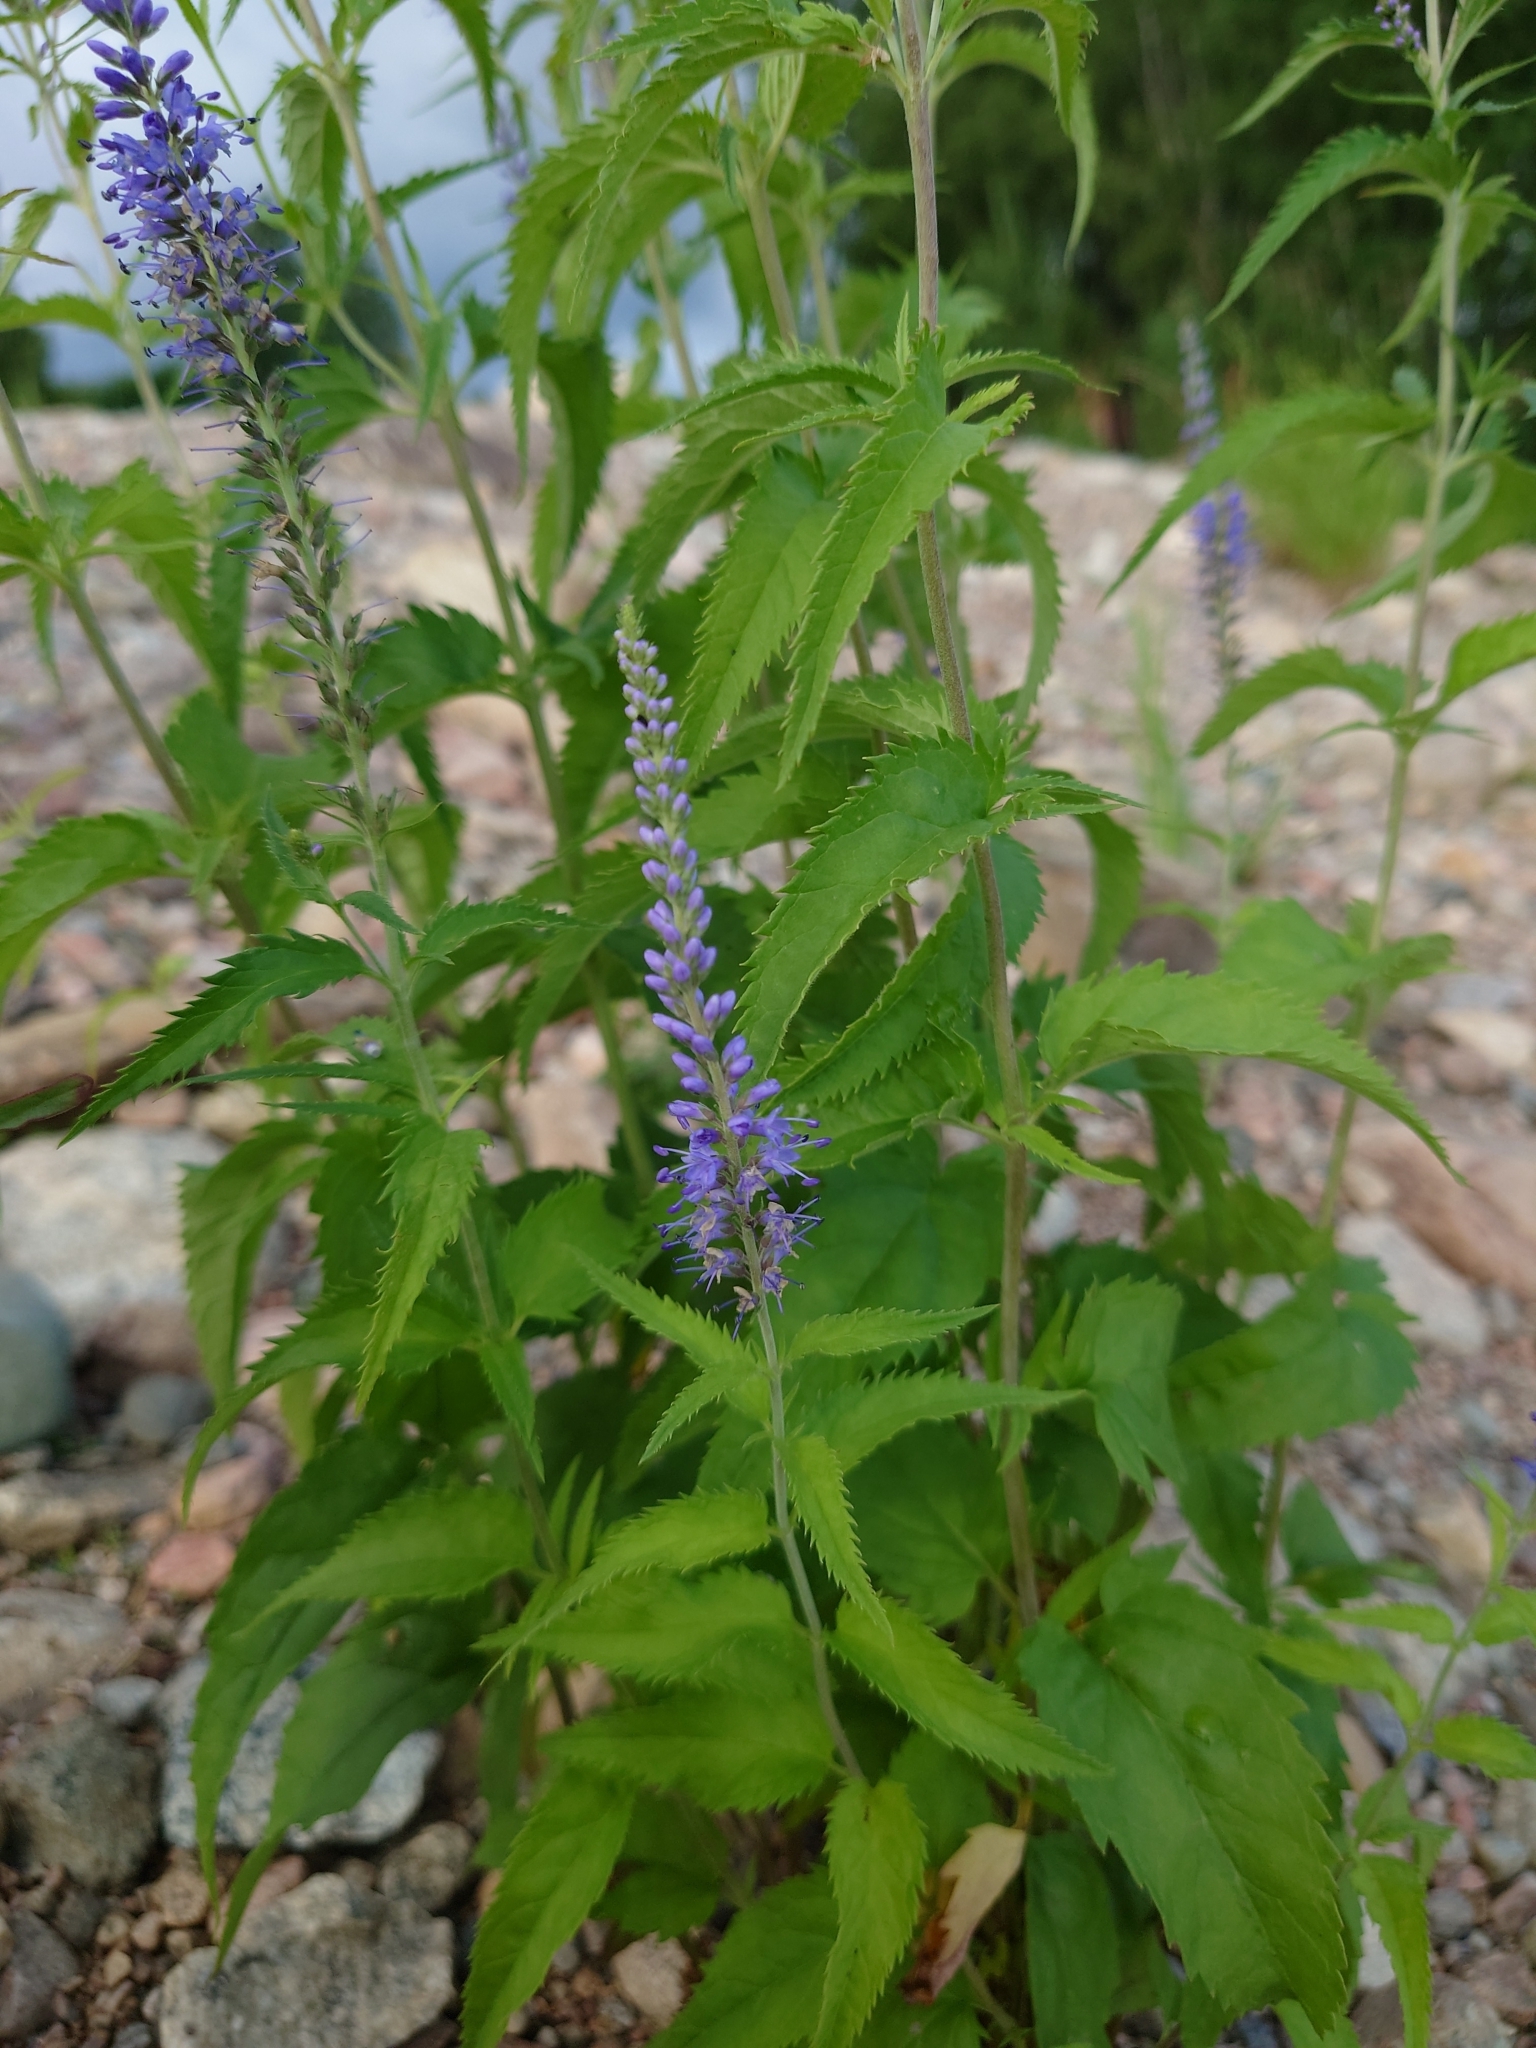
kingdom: Plantae
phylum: Tracheophyta
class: Magnoliopsida
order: Lamiales
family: Plantaginaceae
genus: Veronica
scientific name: Veronica longifolia
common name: Garden speedwell
